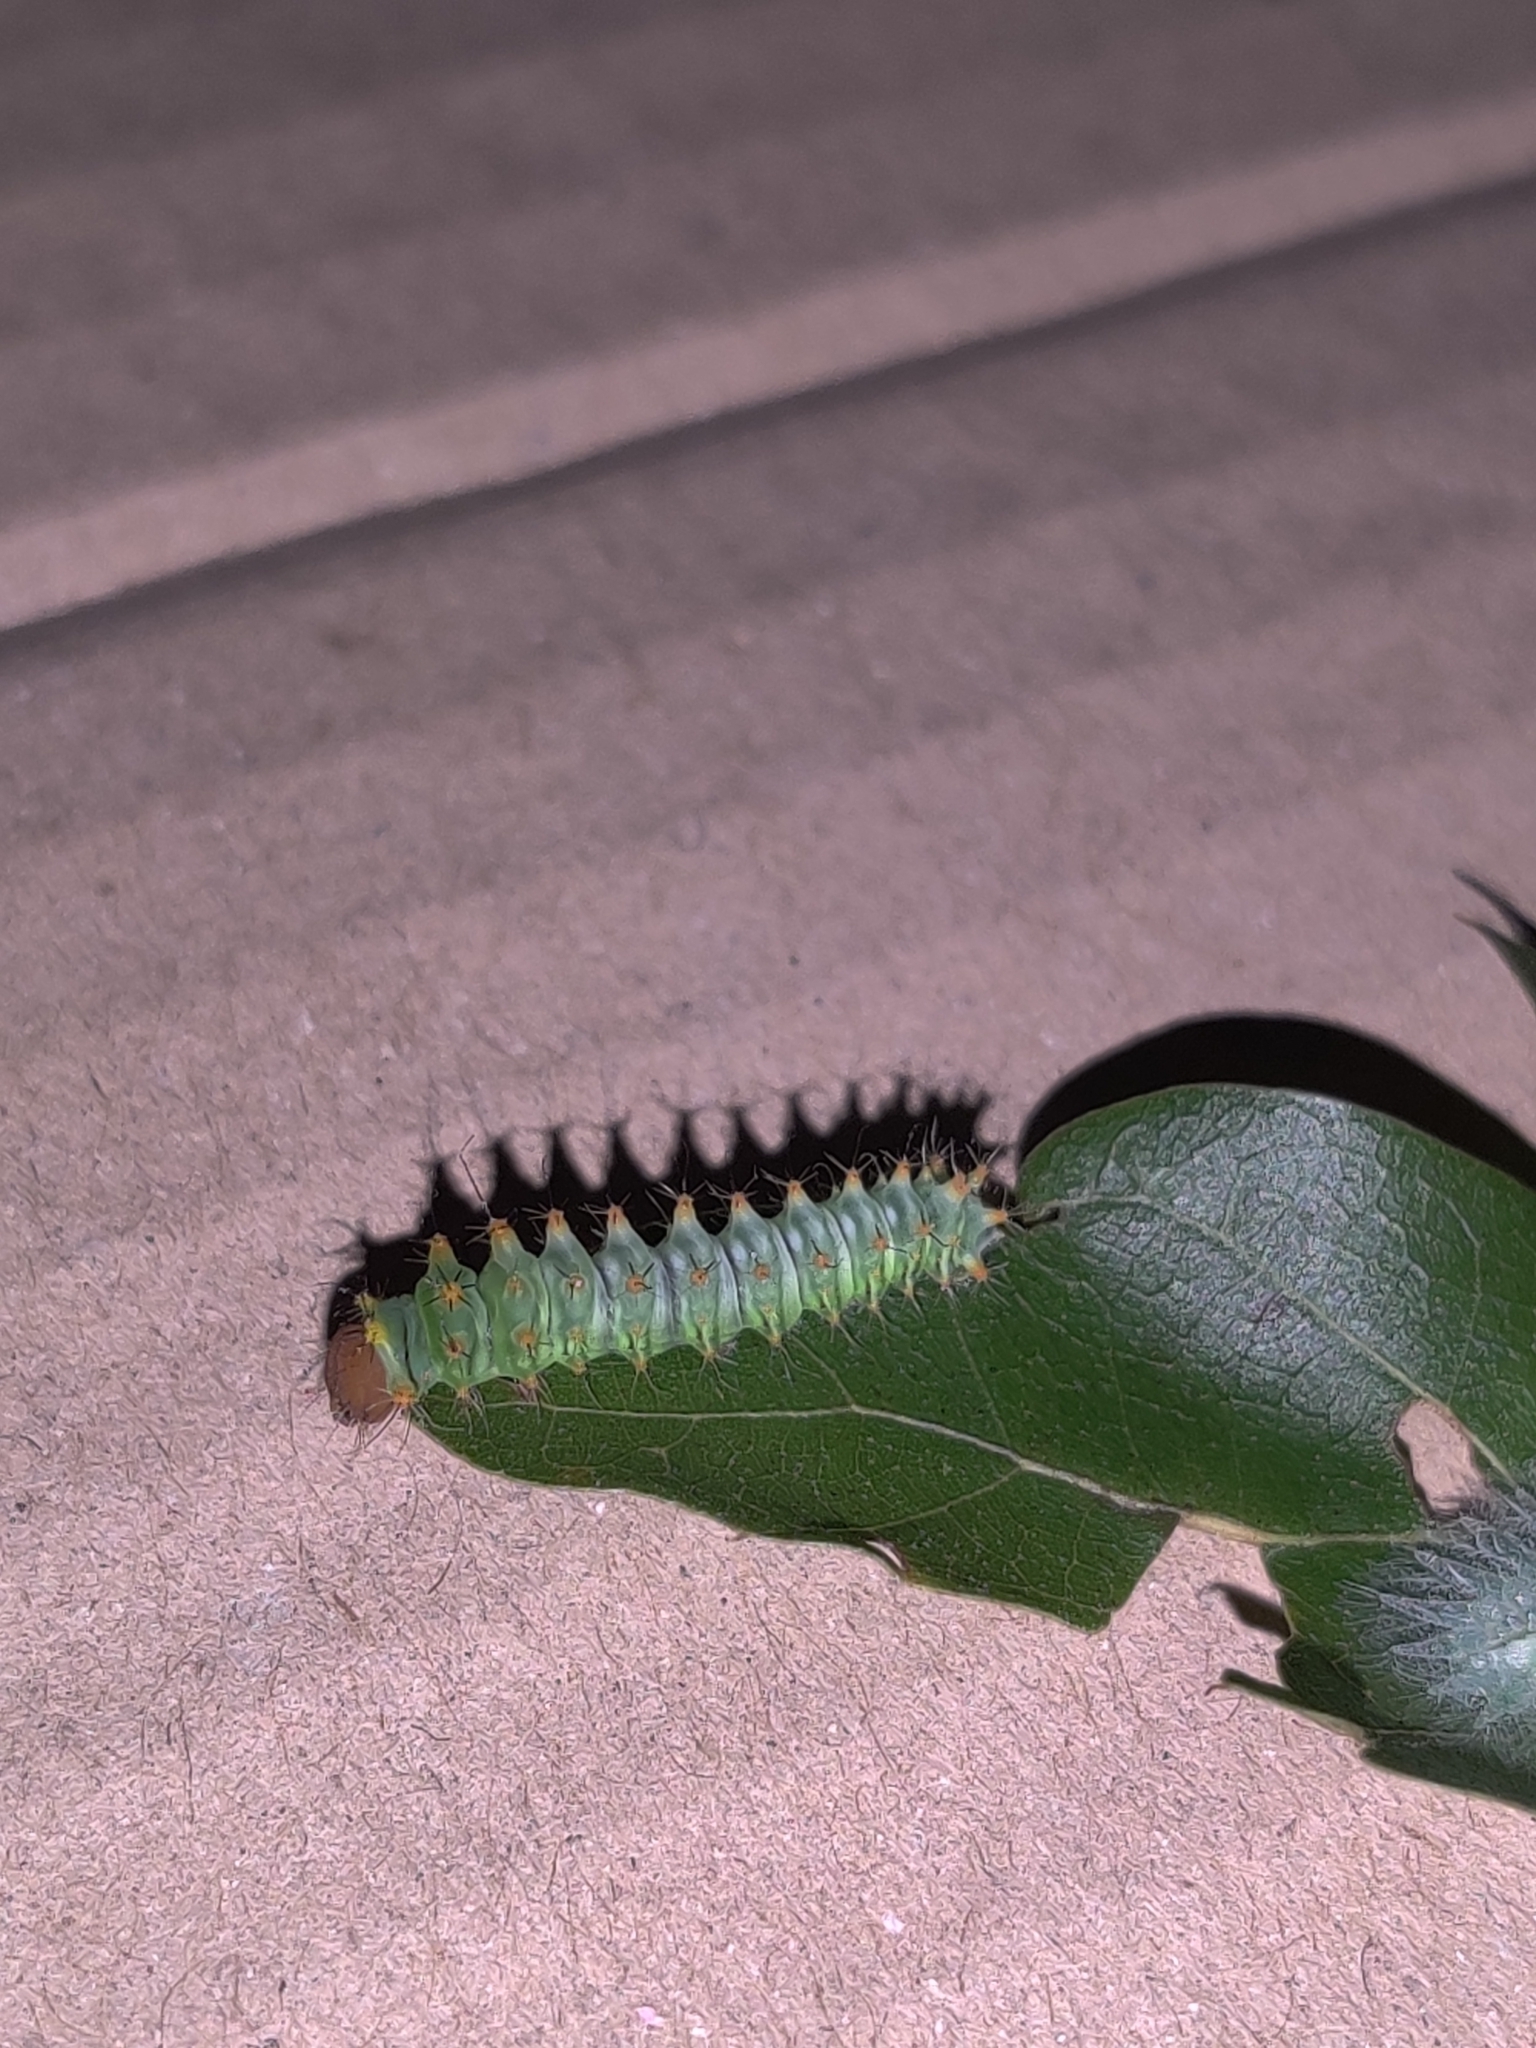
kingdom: Animalia
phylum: Arthropoda
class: Insecta
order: Lepidoptera
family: Saturniidae
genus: Antheraea
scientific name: Antheraea polyphemus
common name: Polyphemus moth
